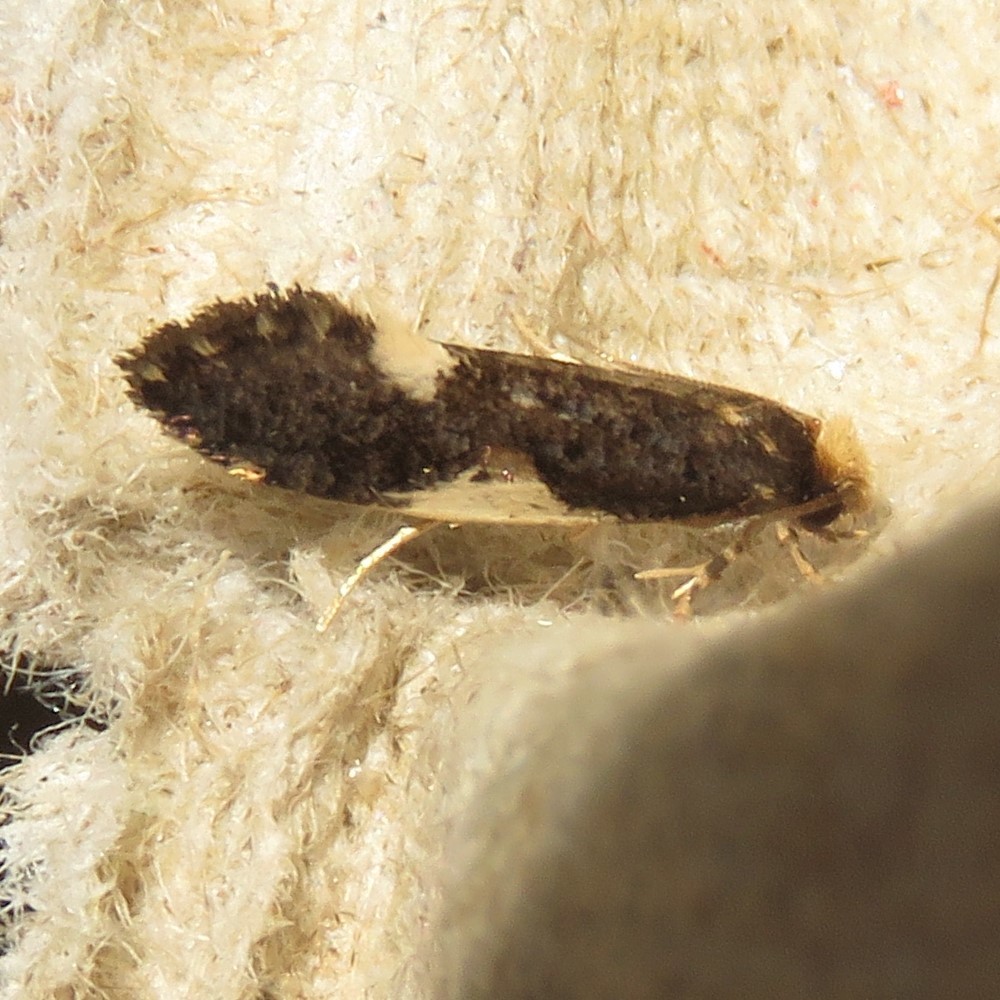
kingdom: Animalia
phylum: Arthropoda
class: Insecta
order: Lepidoptera
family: Tineidae
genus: Monopis
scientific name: Monopis spilotella
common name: Orange-headed monopis
